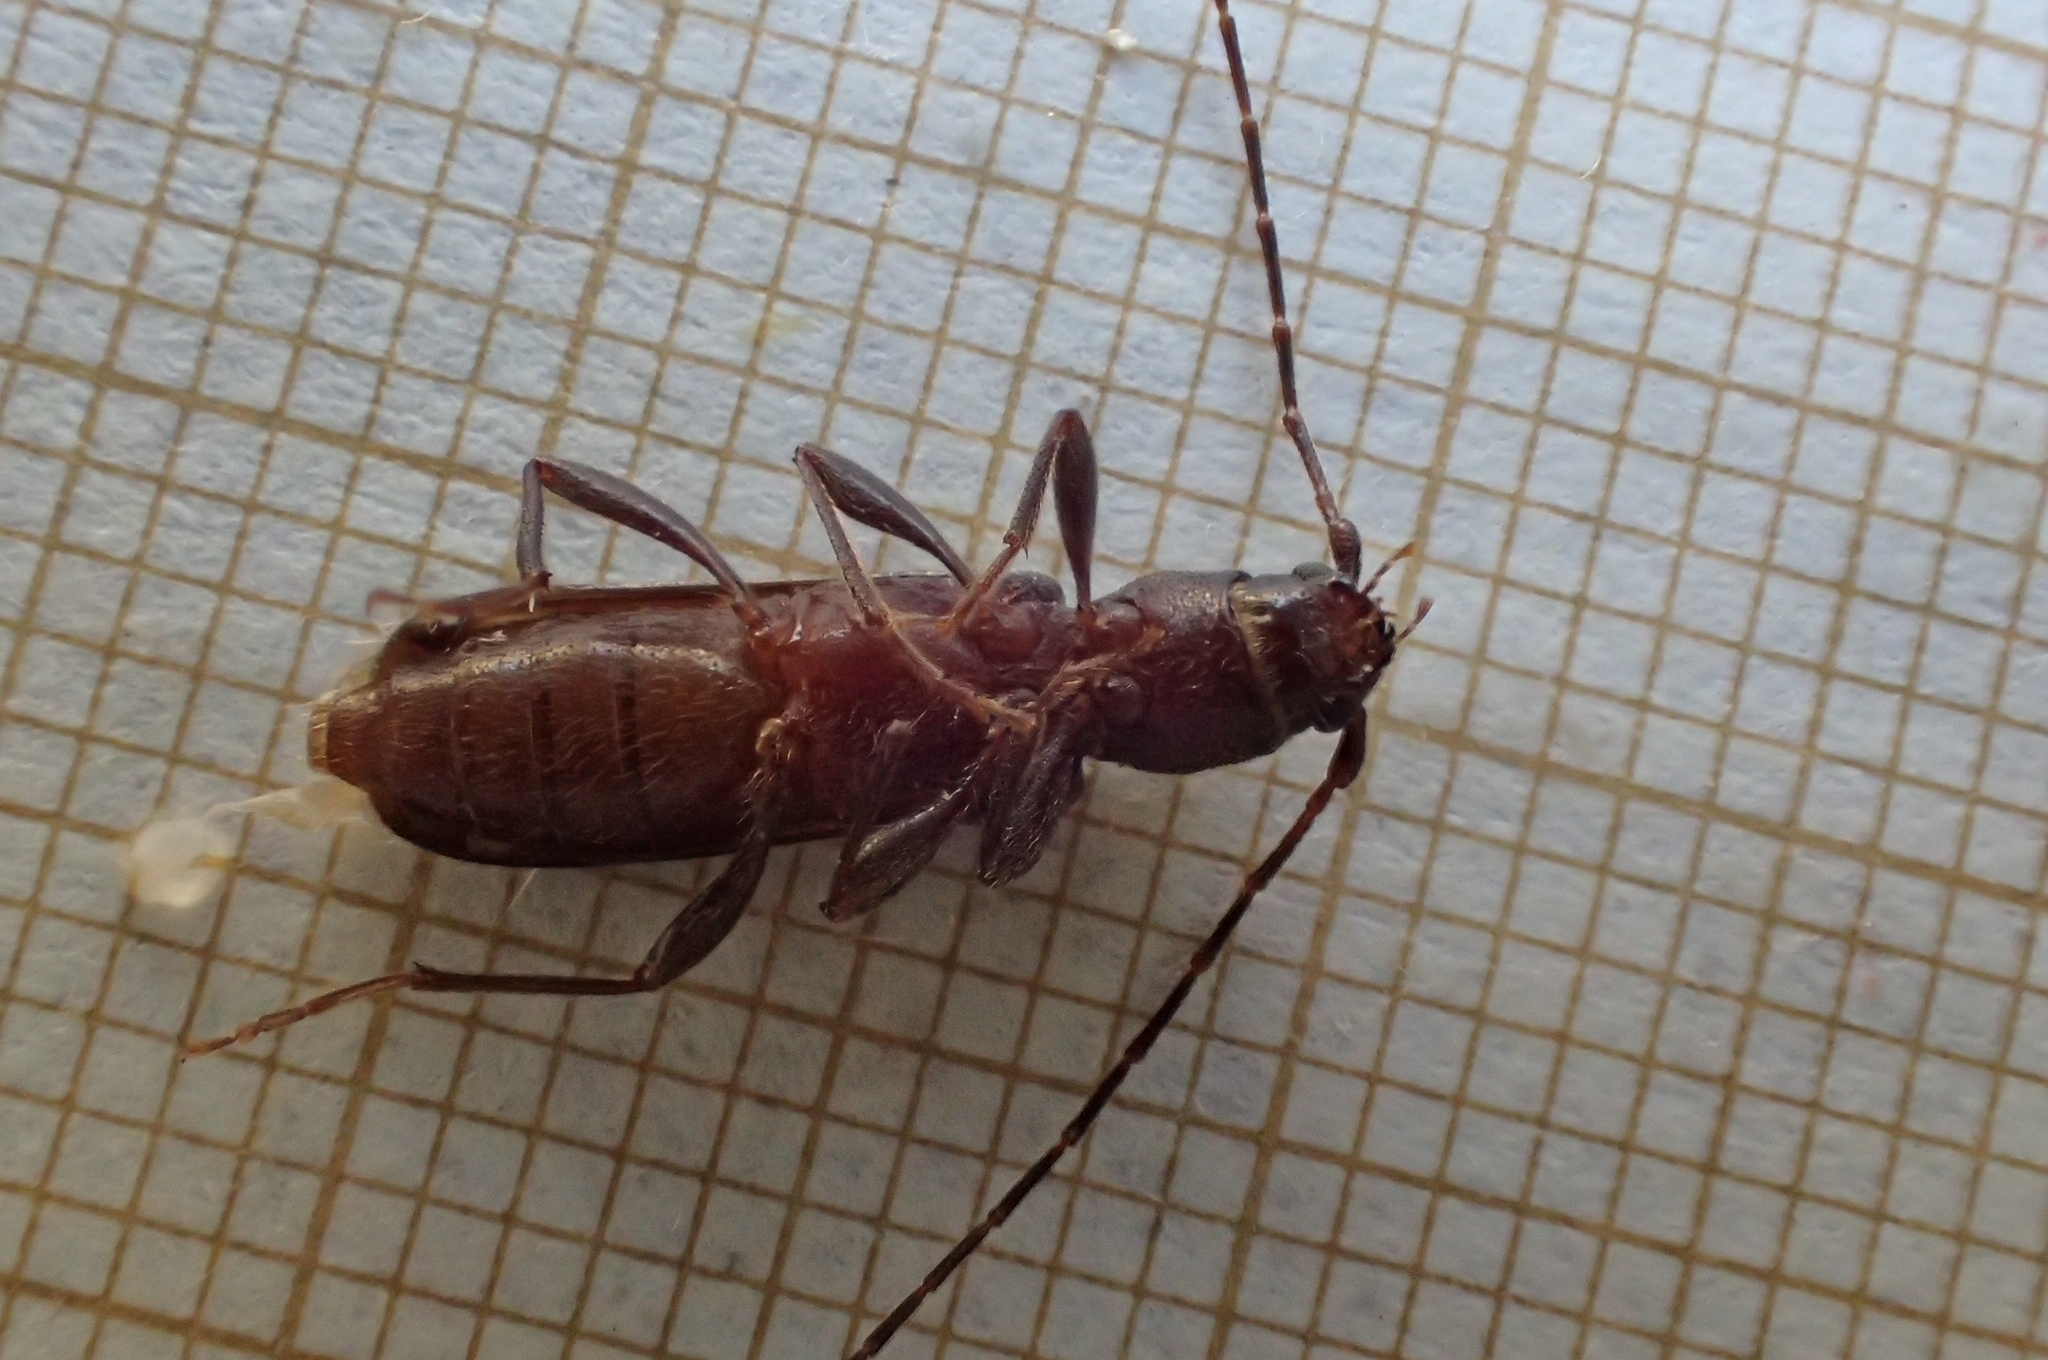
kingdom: Animalia
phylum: Arthropoda
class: Insecta
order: Coleoptera
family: Cerambycidae
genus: Penichroa
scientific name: Penichroa fasciata
